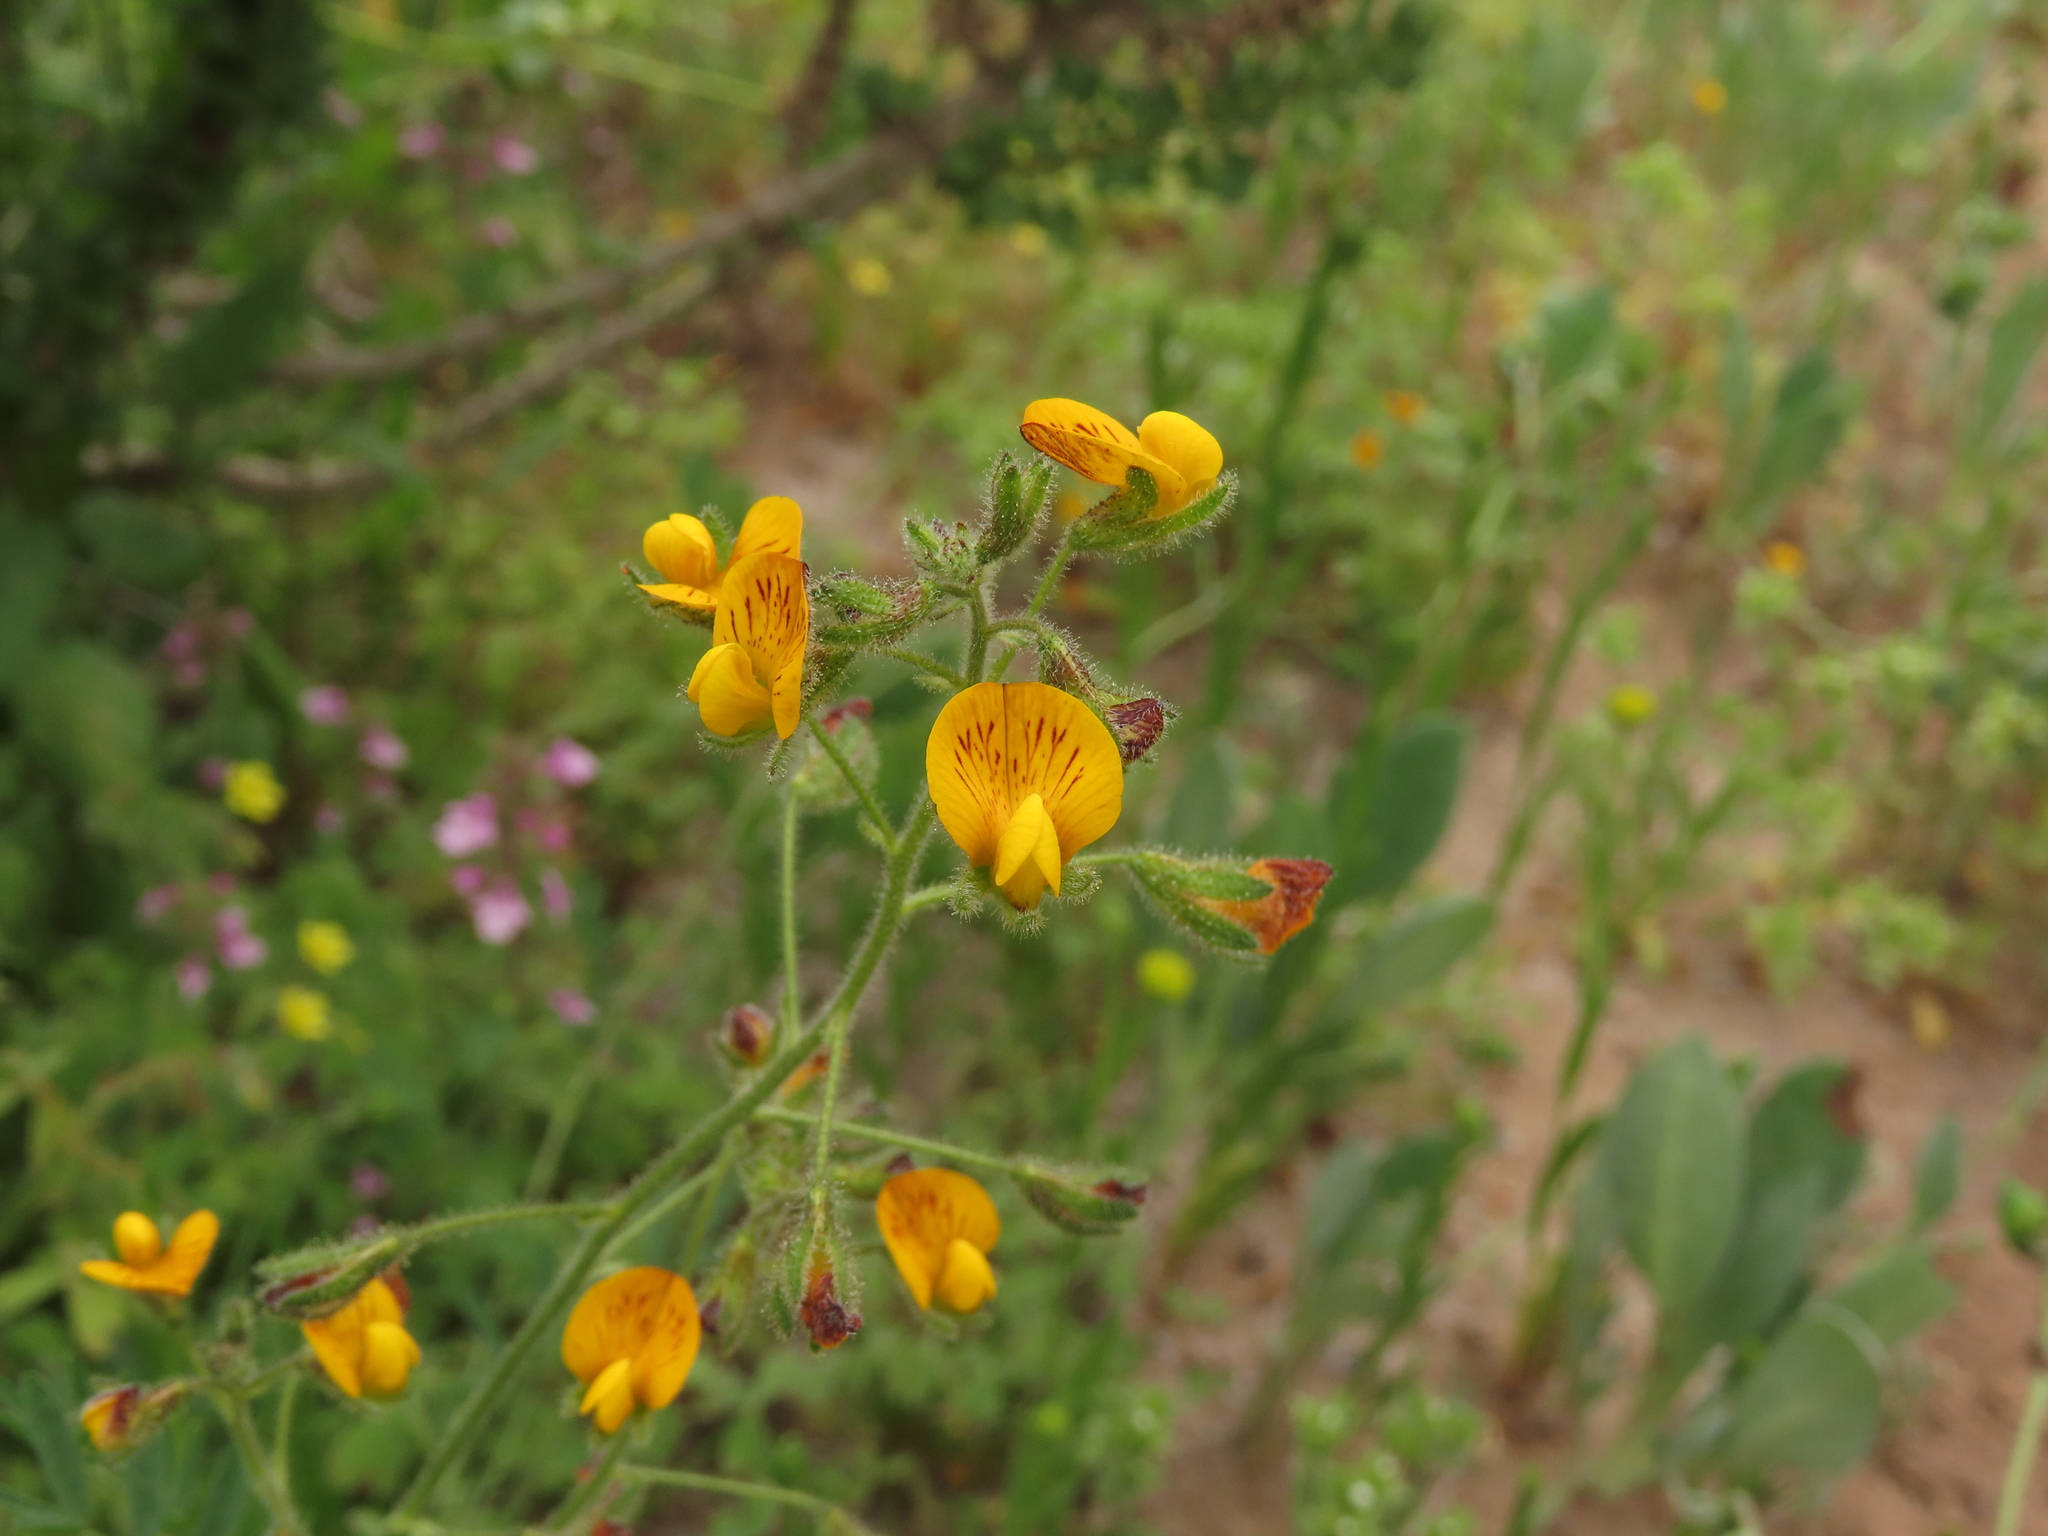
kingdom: Plantae
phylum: Tracheophyta
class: Magnoliopsida
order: Fabales
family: Fabaceae
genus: Adesmia
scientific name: Adesmia tenella
